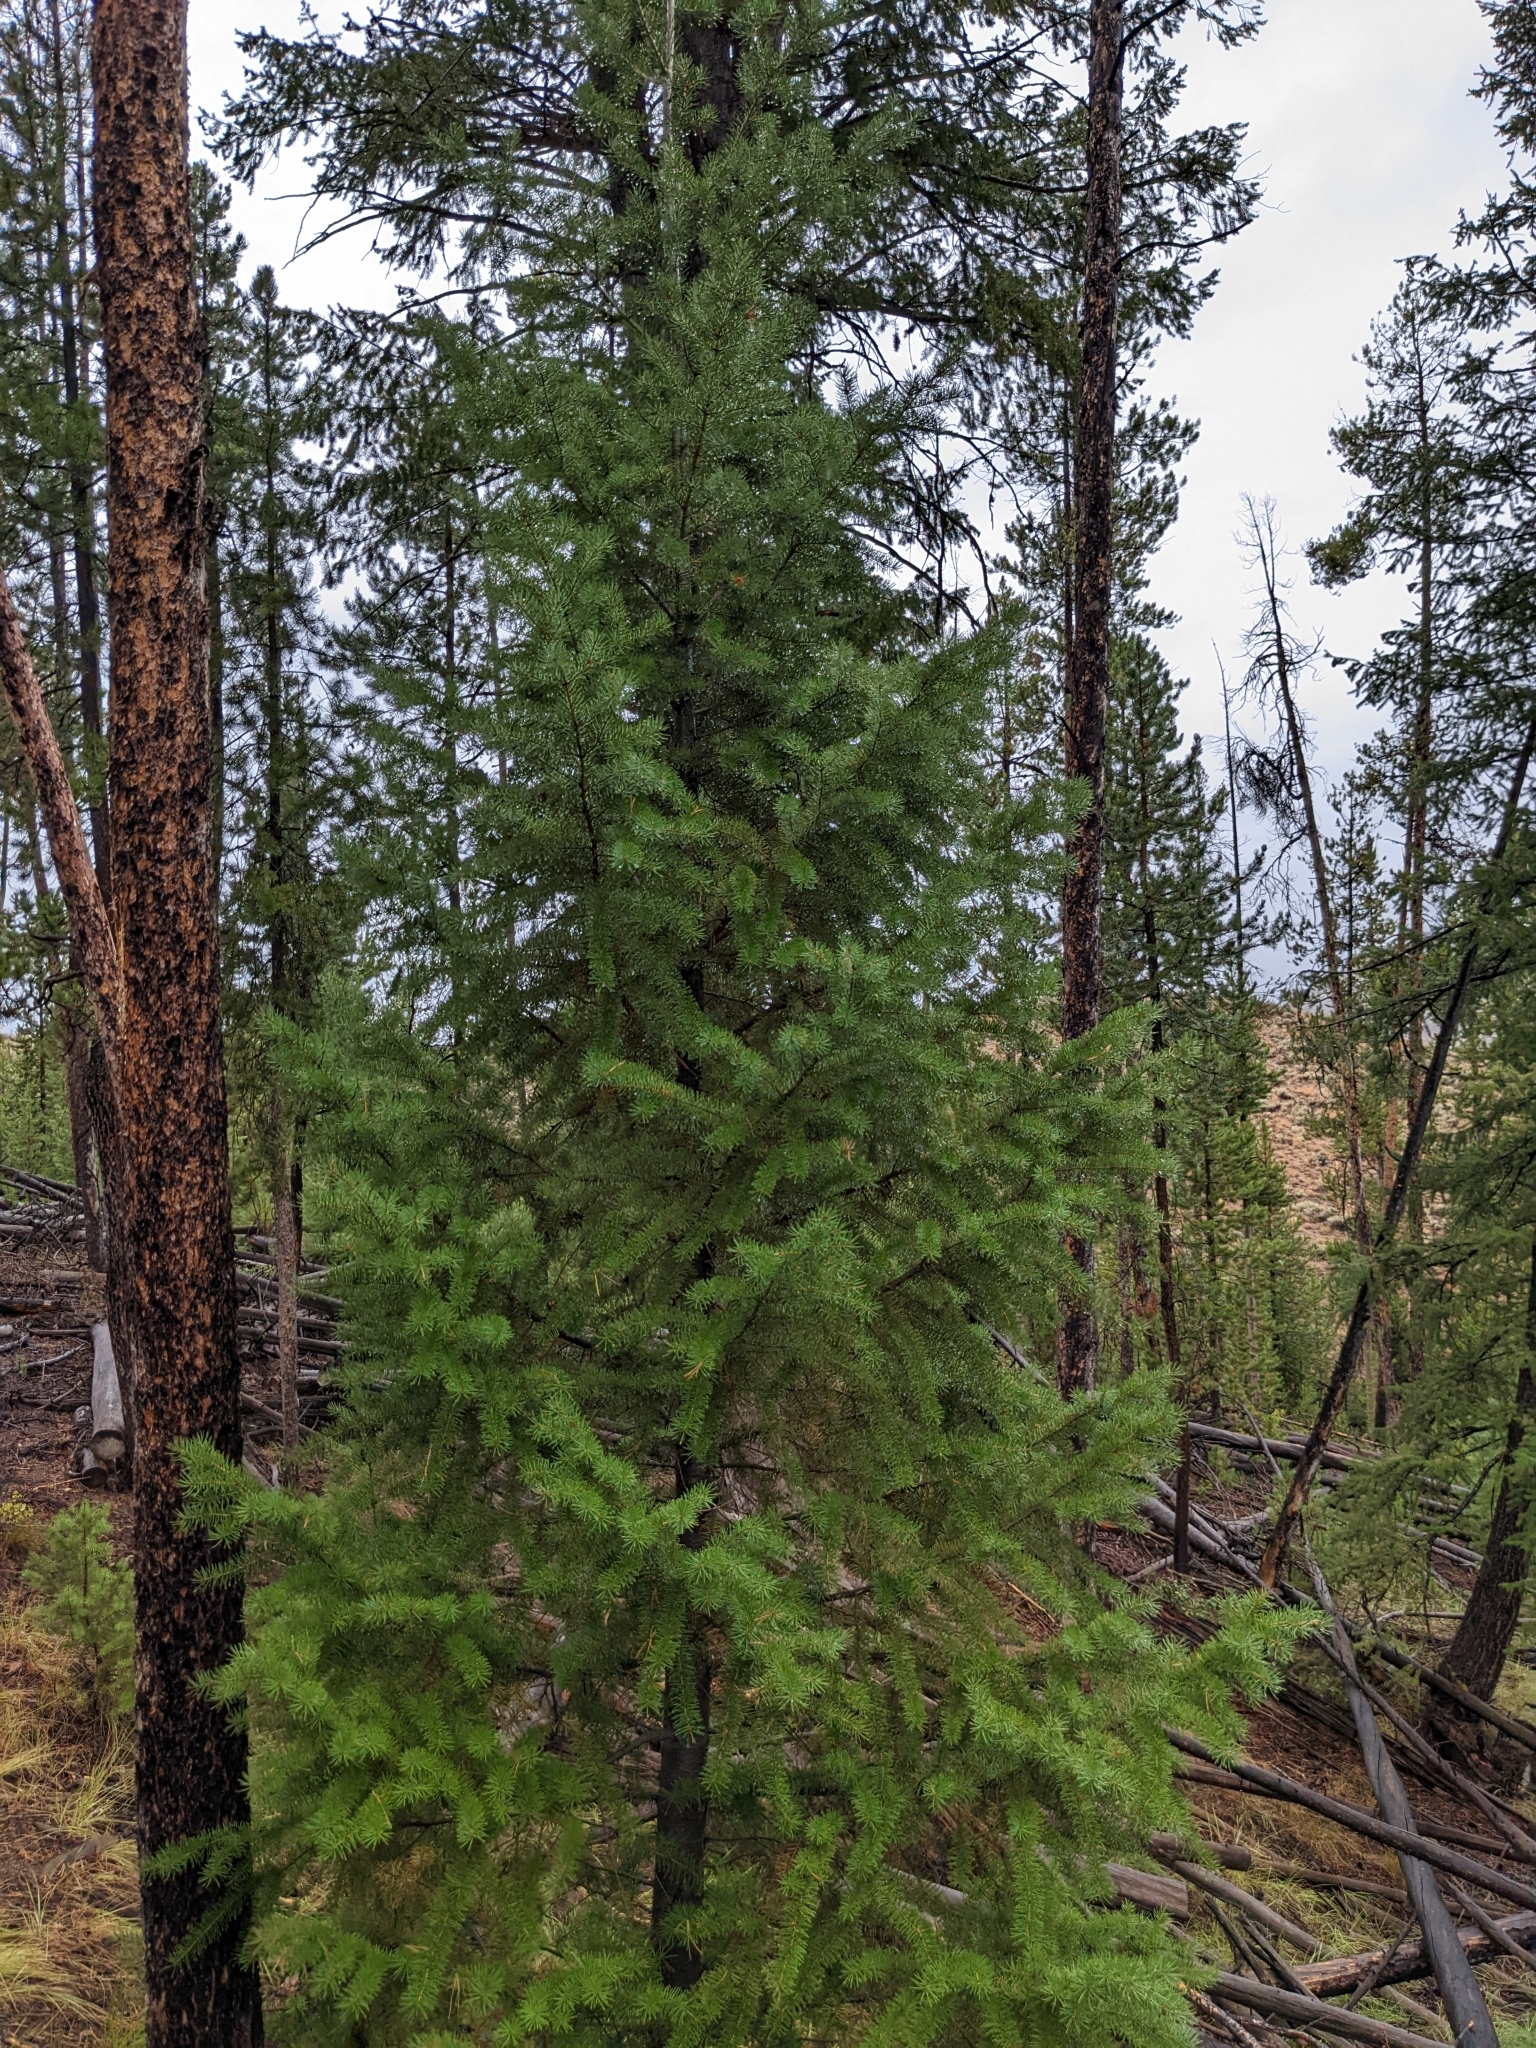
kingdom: Plantae
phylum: Tracheophyta
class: Pinopsida
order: Pinales
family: Pinaceae
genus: Pseudotsuga
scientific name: Pseudotsuga menziesii
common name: Douglas fir
